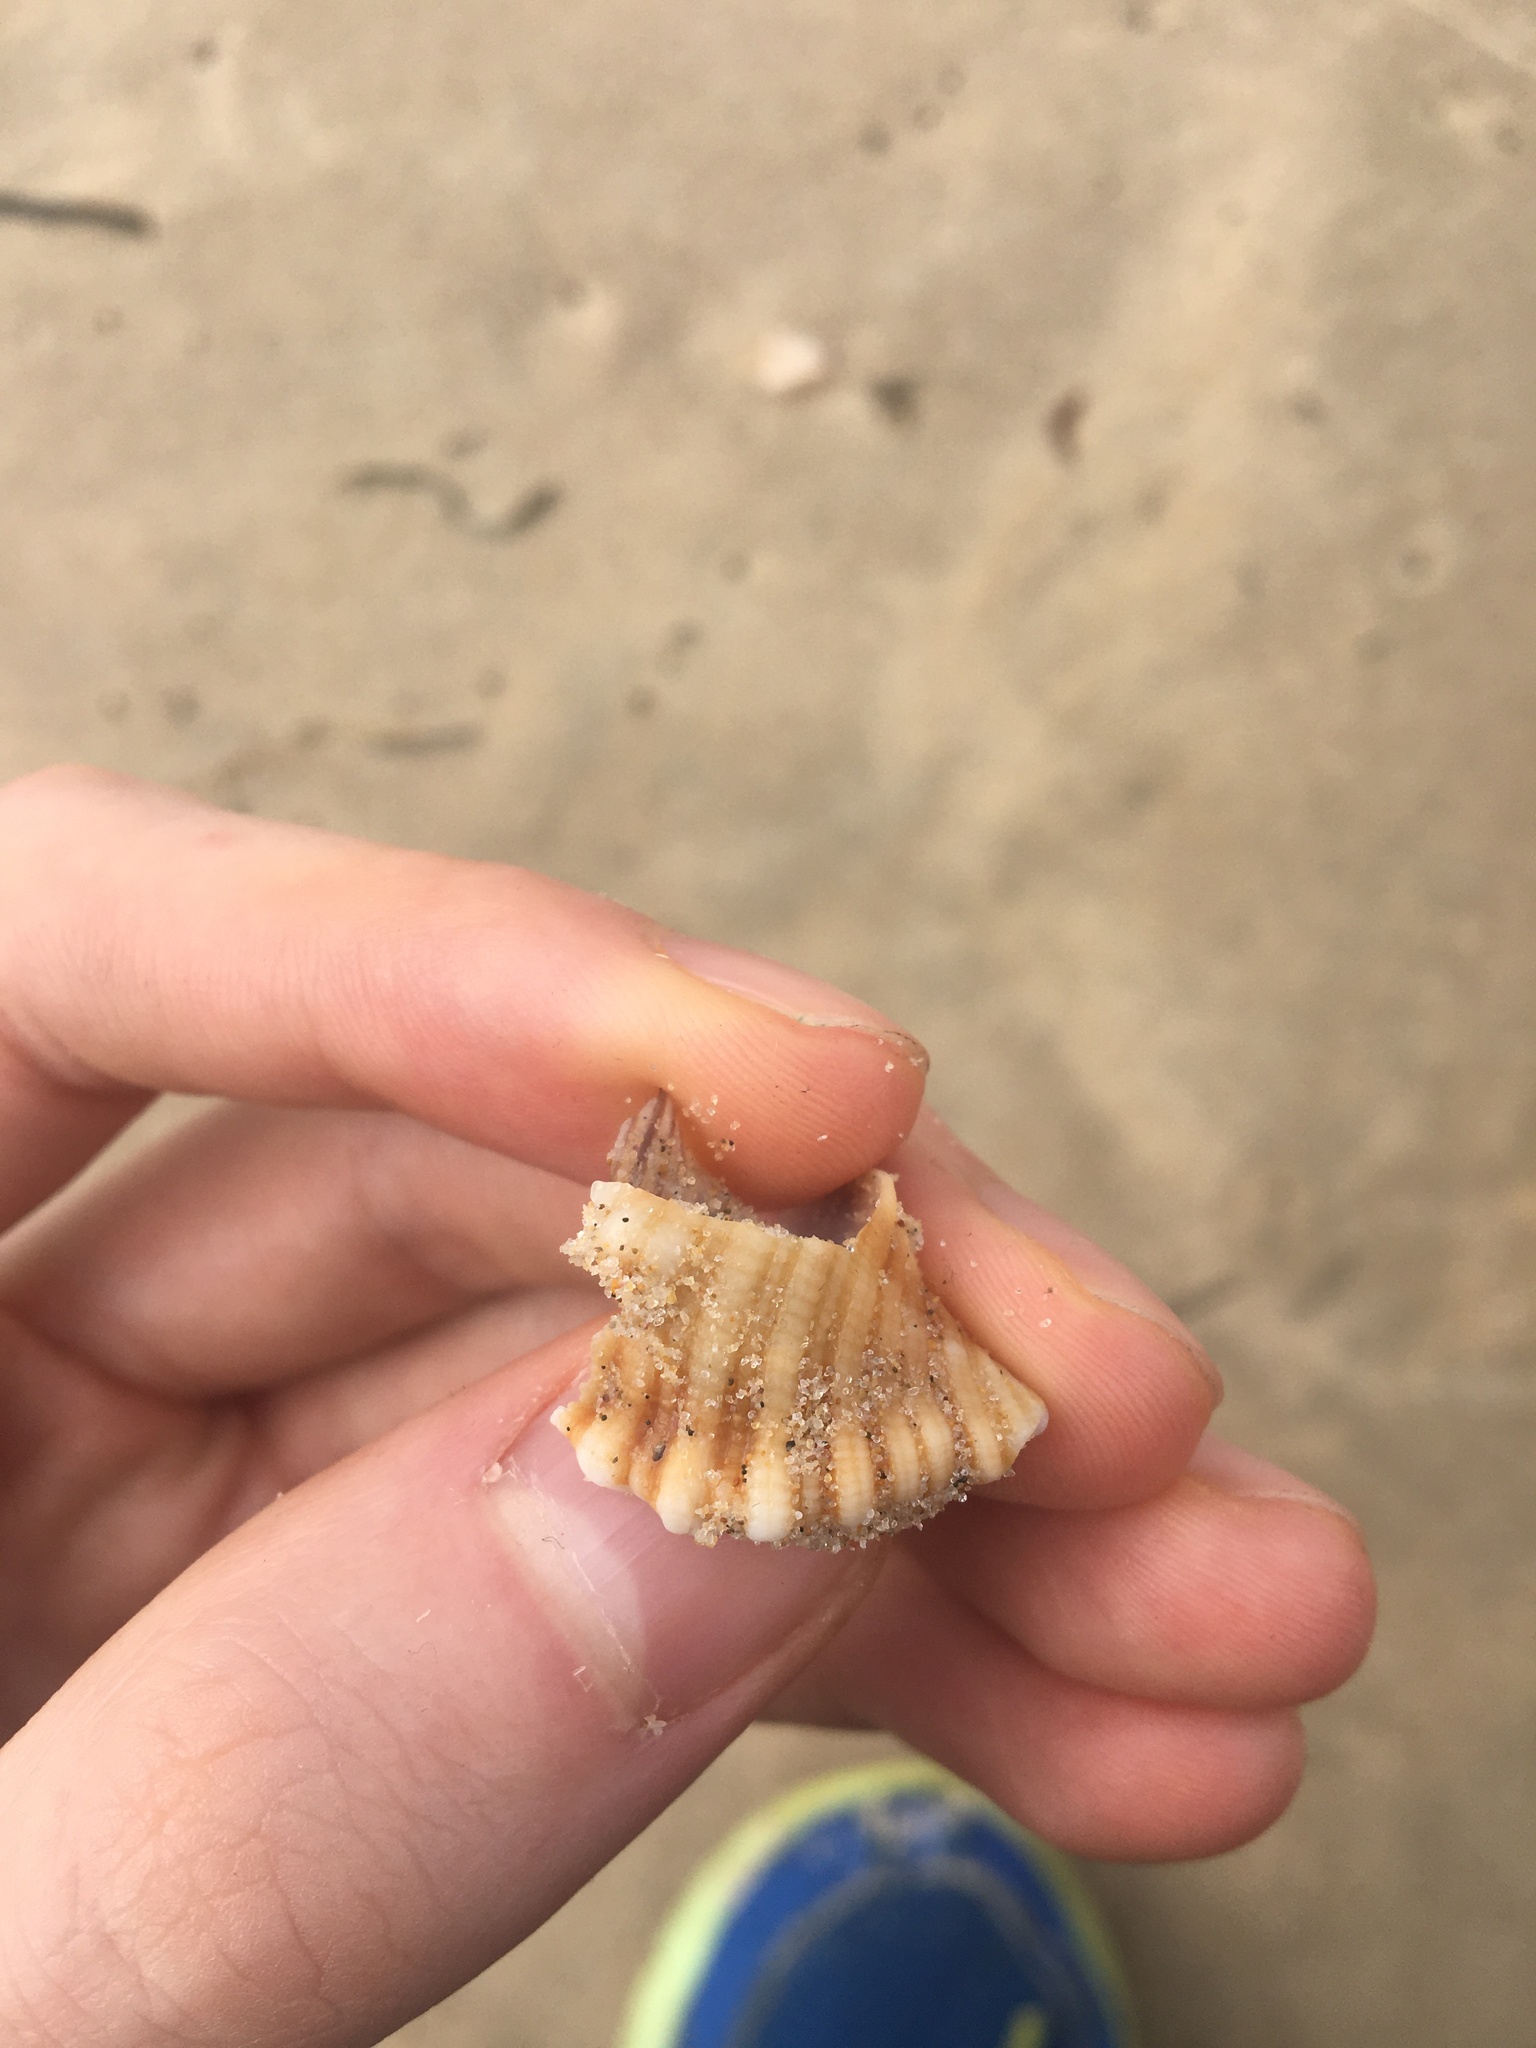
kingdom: Animalia
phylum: Mollusca
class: Gastropoda
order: Littorinimorpha
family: Cymatiidae
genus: Cabestana
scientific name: Cabestana spengleri
